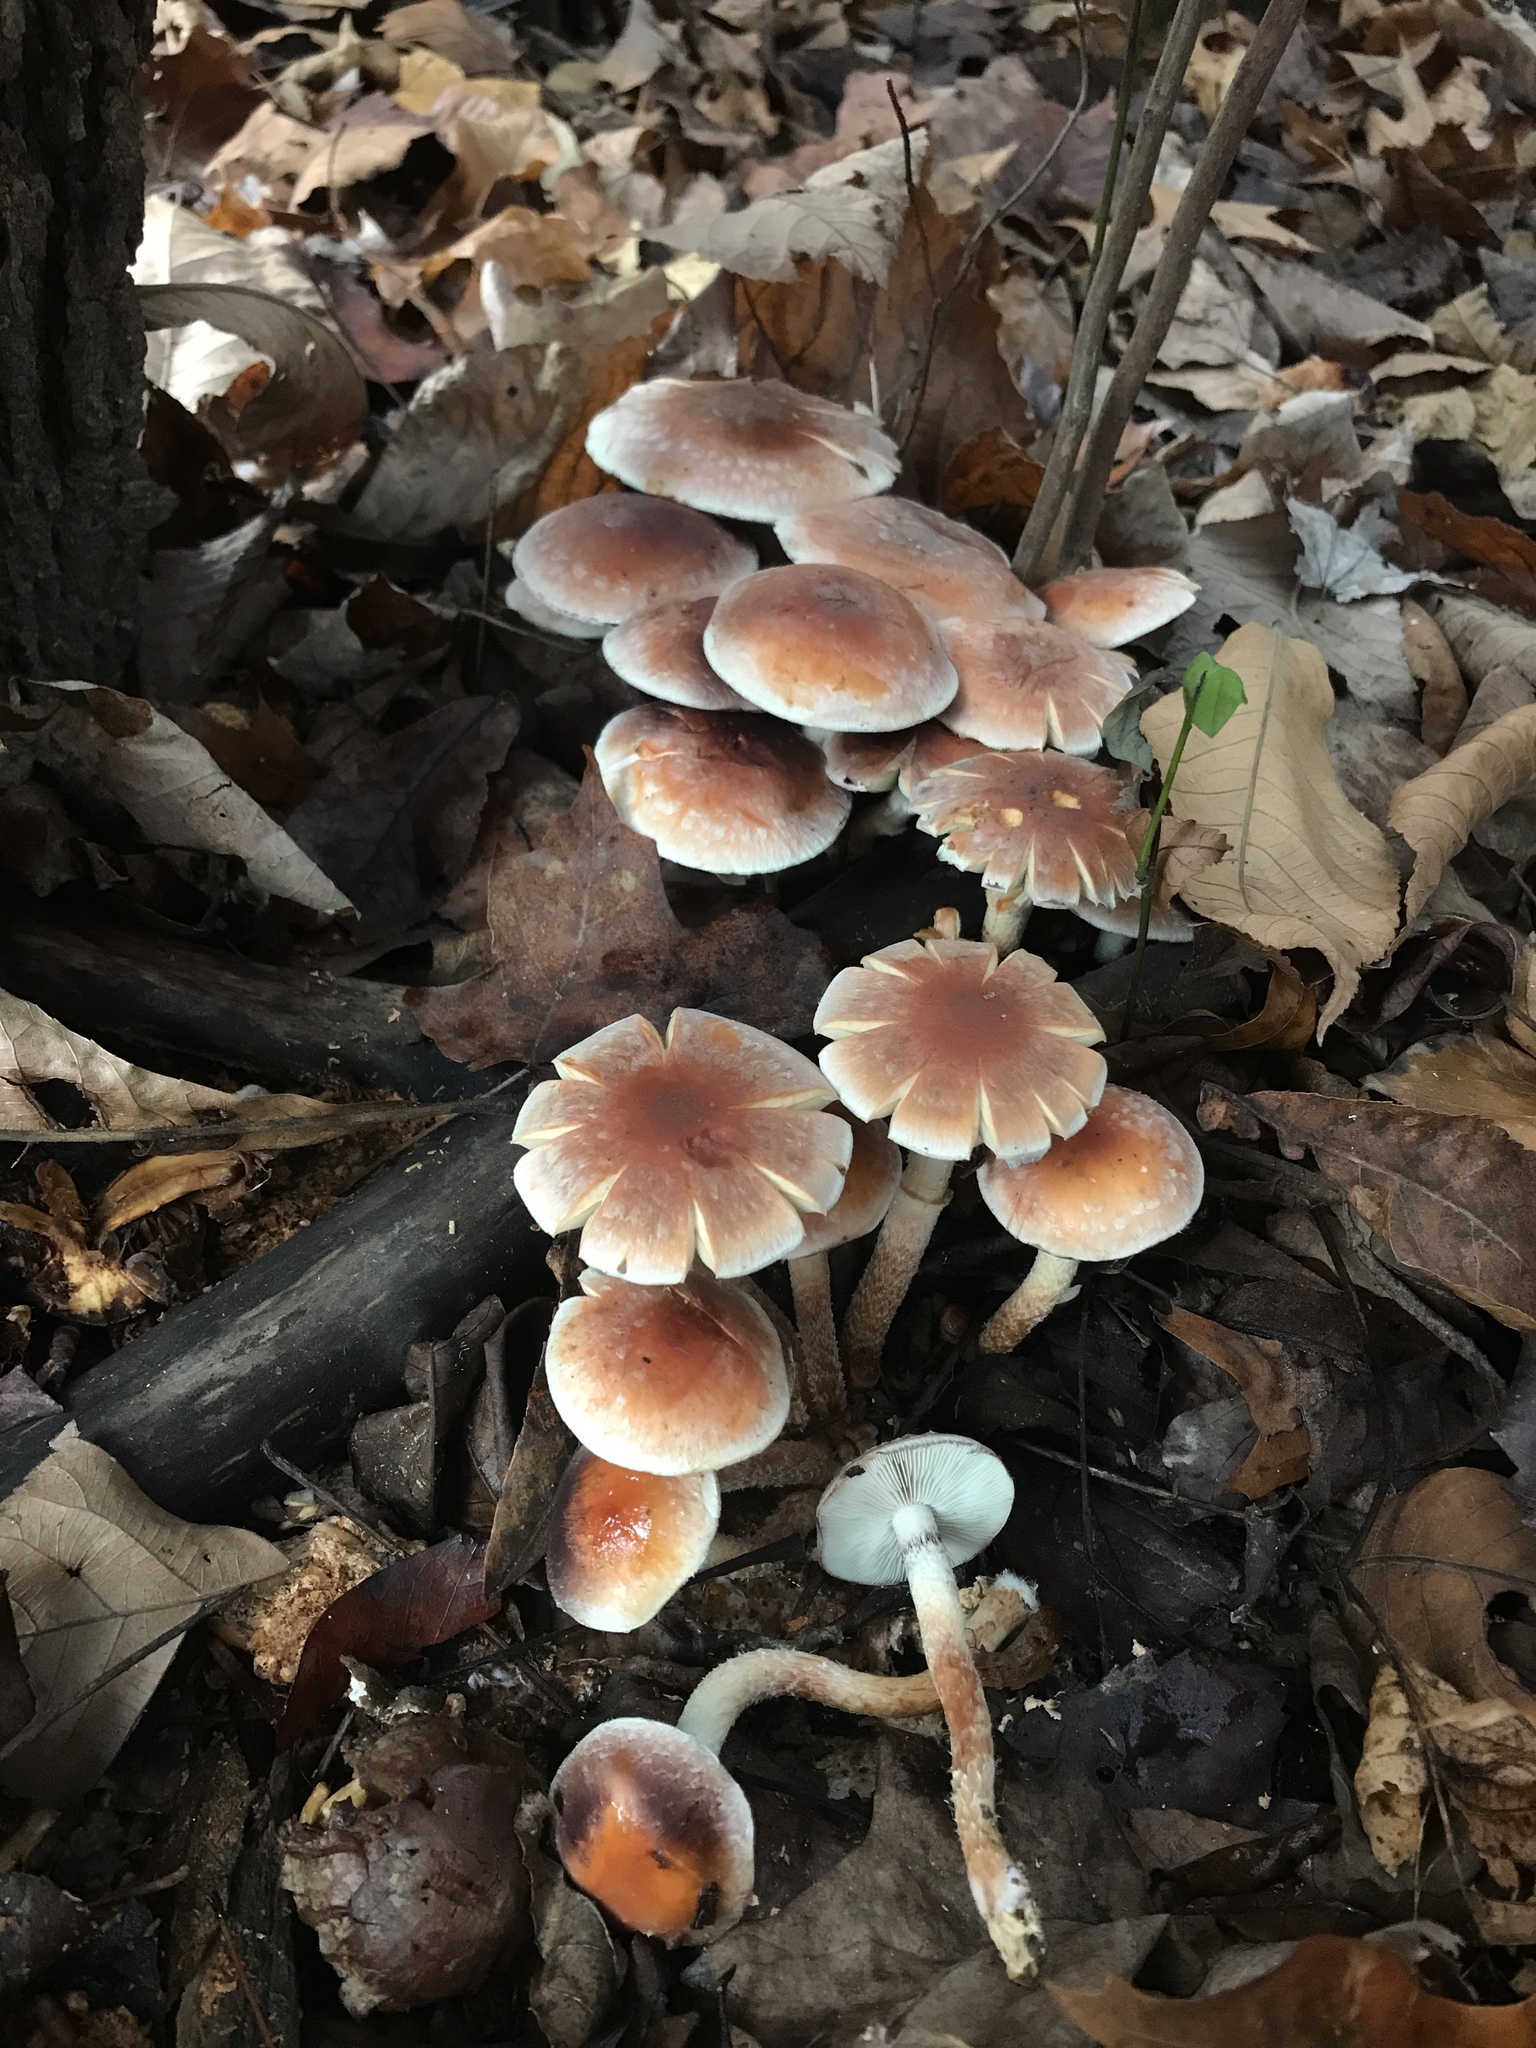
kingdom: Fungi
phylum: Basidiomycota
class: Agaricomycetes
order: Agaricales
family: Strophariaceae
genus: Hypholoma
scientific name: Hypholoma lateritium
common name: Brick caps
